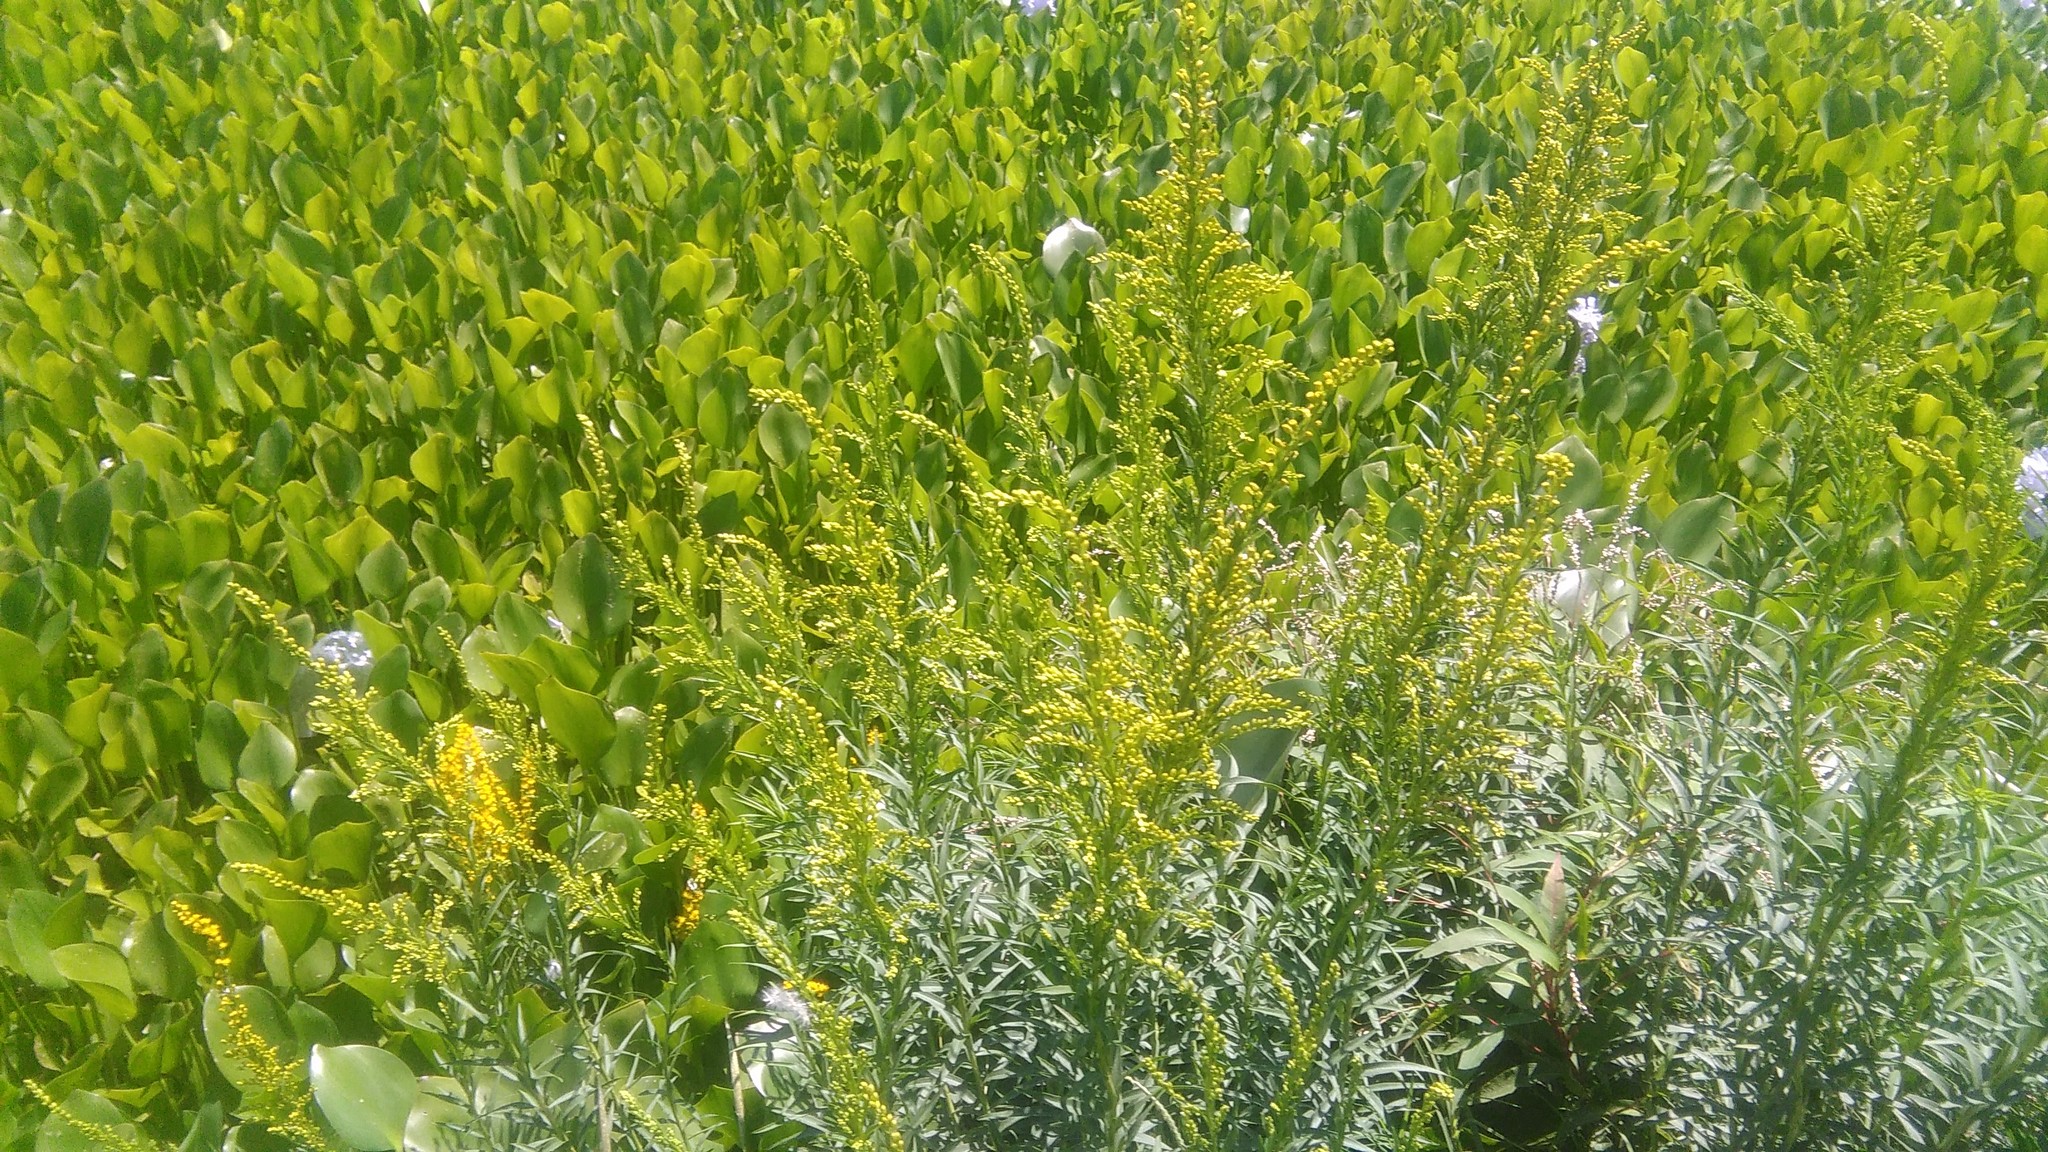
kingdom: Plantae
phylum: Tracheophyta
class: Magnoliopsida
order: Asterales
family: Asteraceae
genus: Solidago
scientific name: Solidago chilensis
